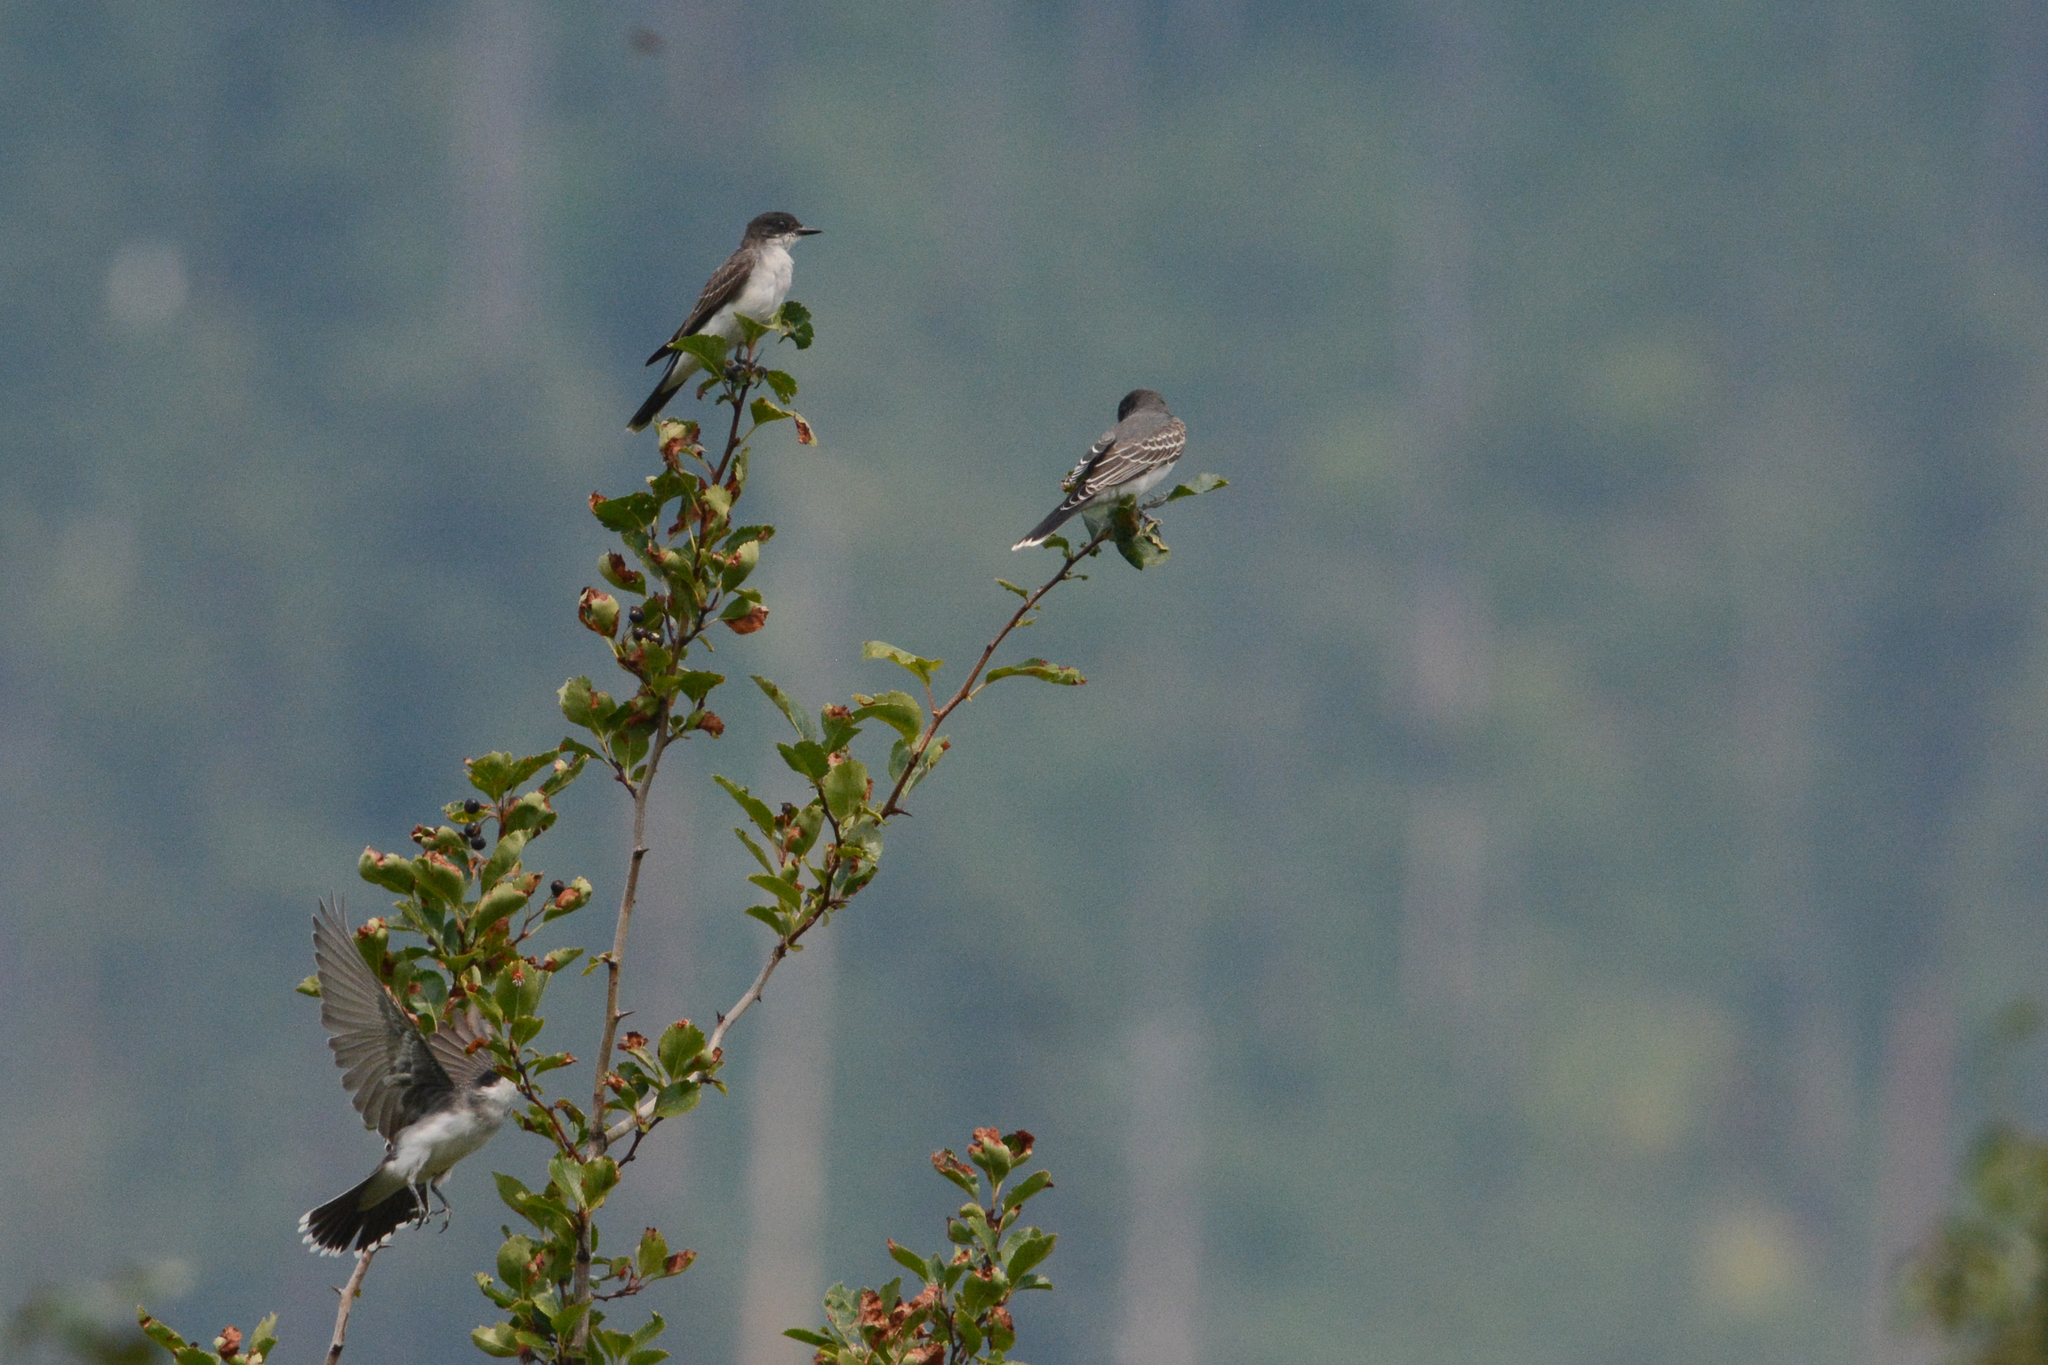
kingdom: Animalia
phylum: Chordata
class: Aves
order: Passeriformes
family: Tyrannidae
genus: Tyrannus
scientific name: Tyrannus tyrannus
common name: Eastern kingbird
